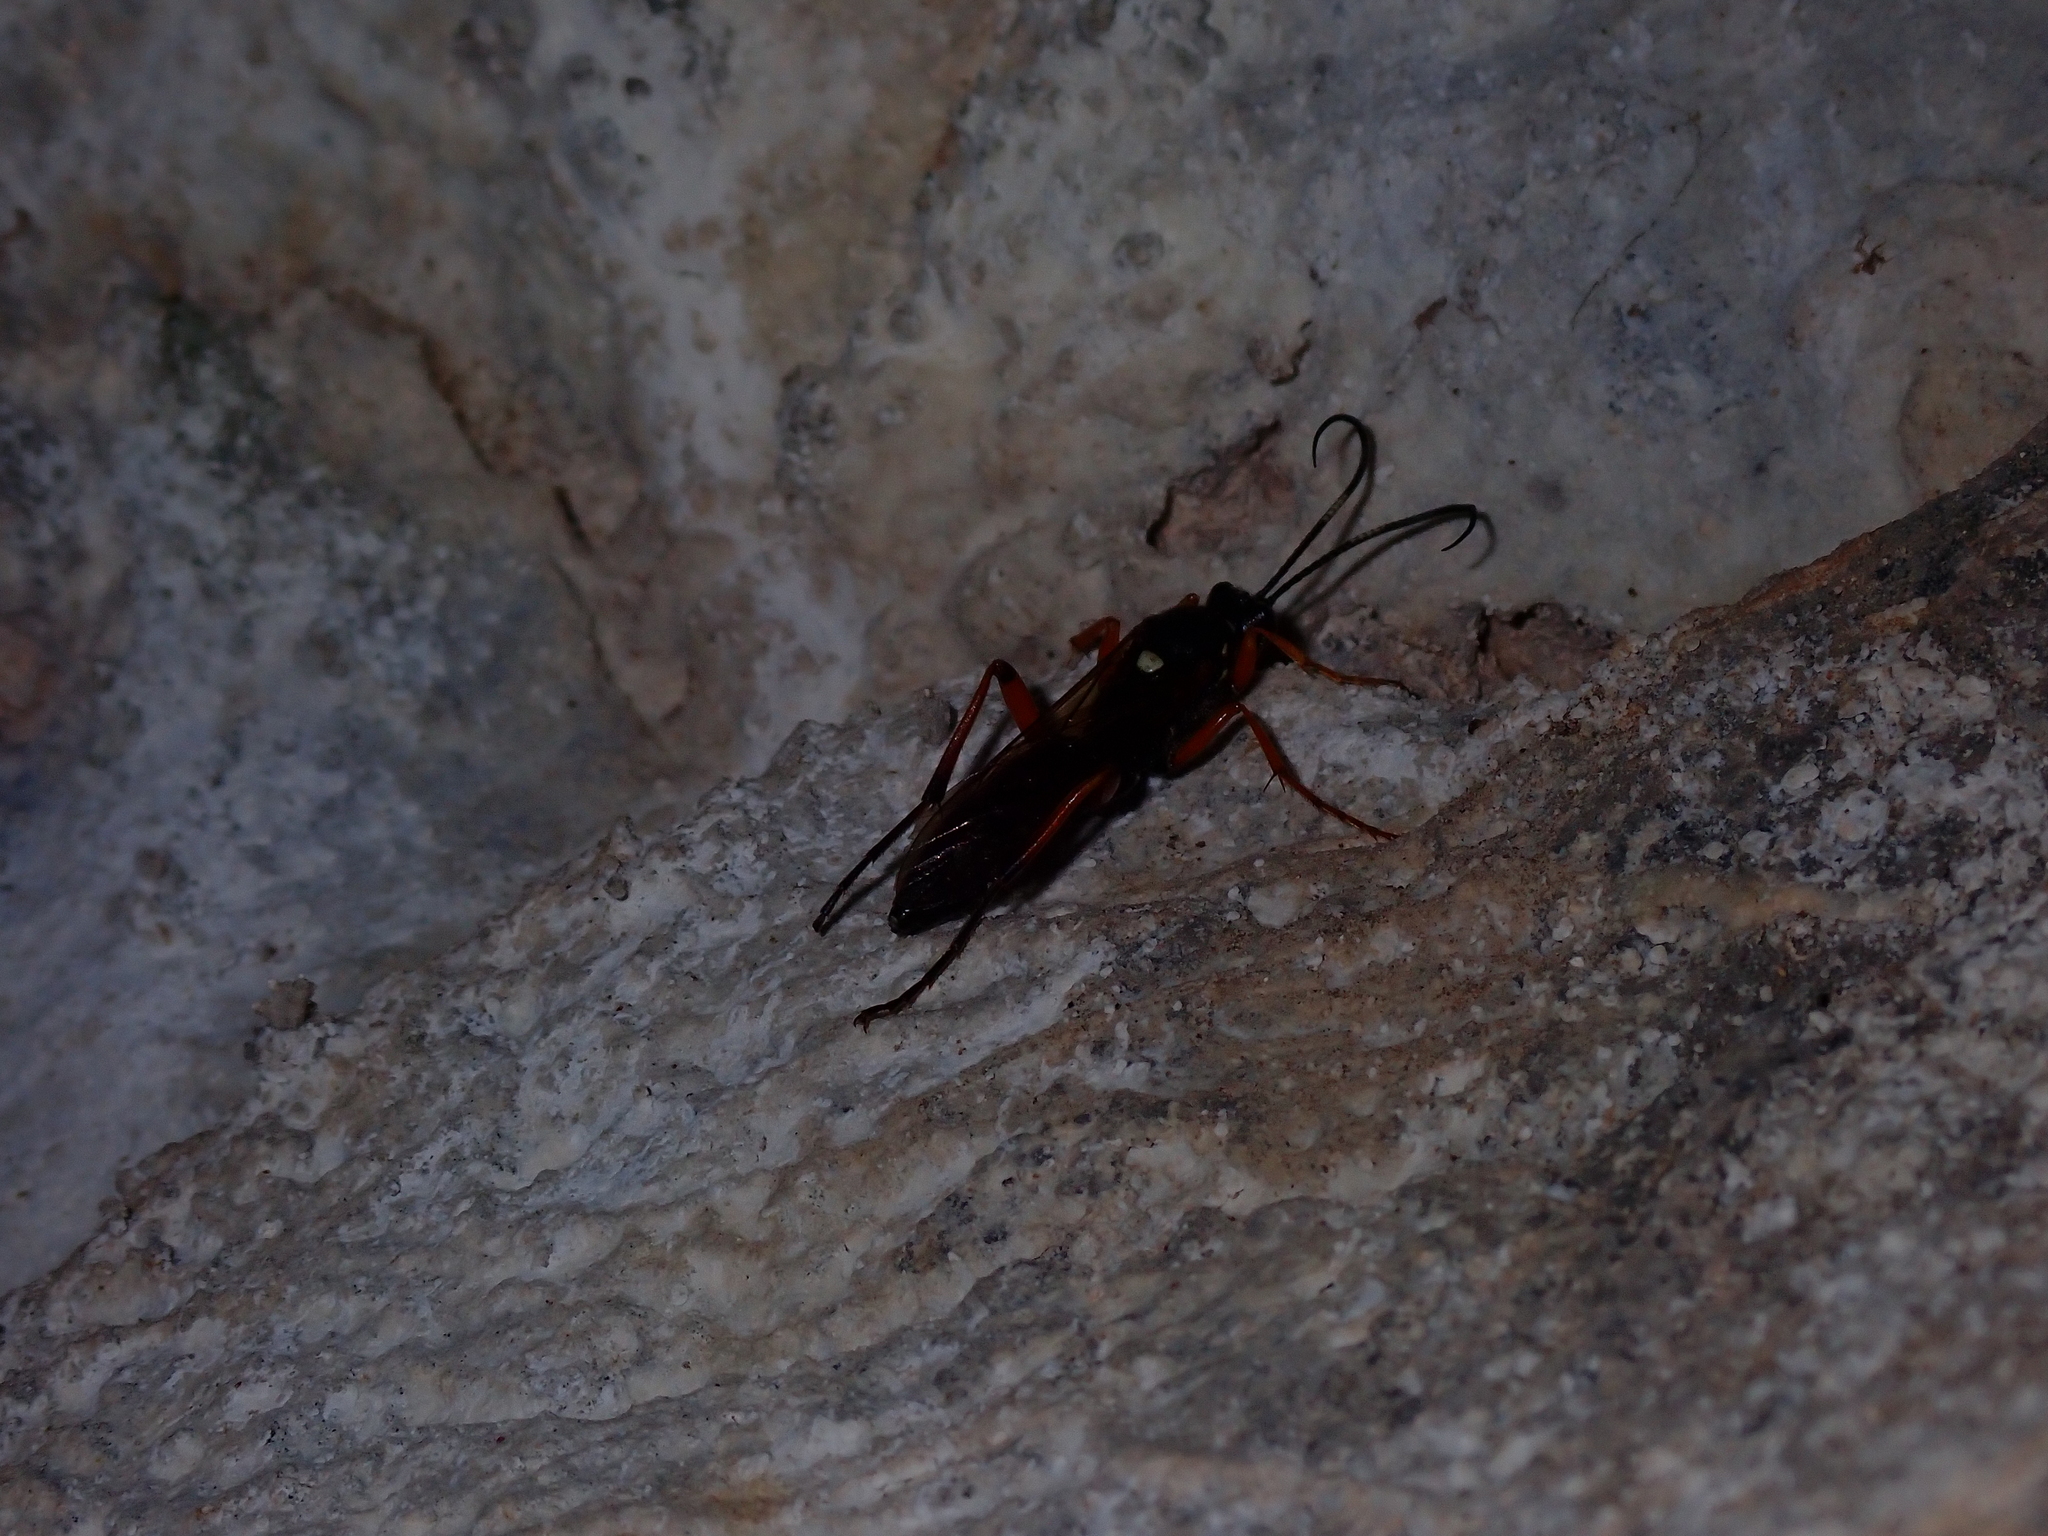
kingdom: Animalia
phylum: Arthropoda
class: Insecta
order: Hymenoptera
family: Ichneumonidae
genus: Diphyus
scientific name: Diphyus quadripunctorius
